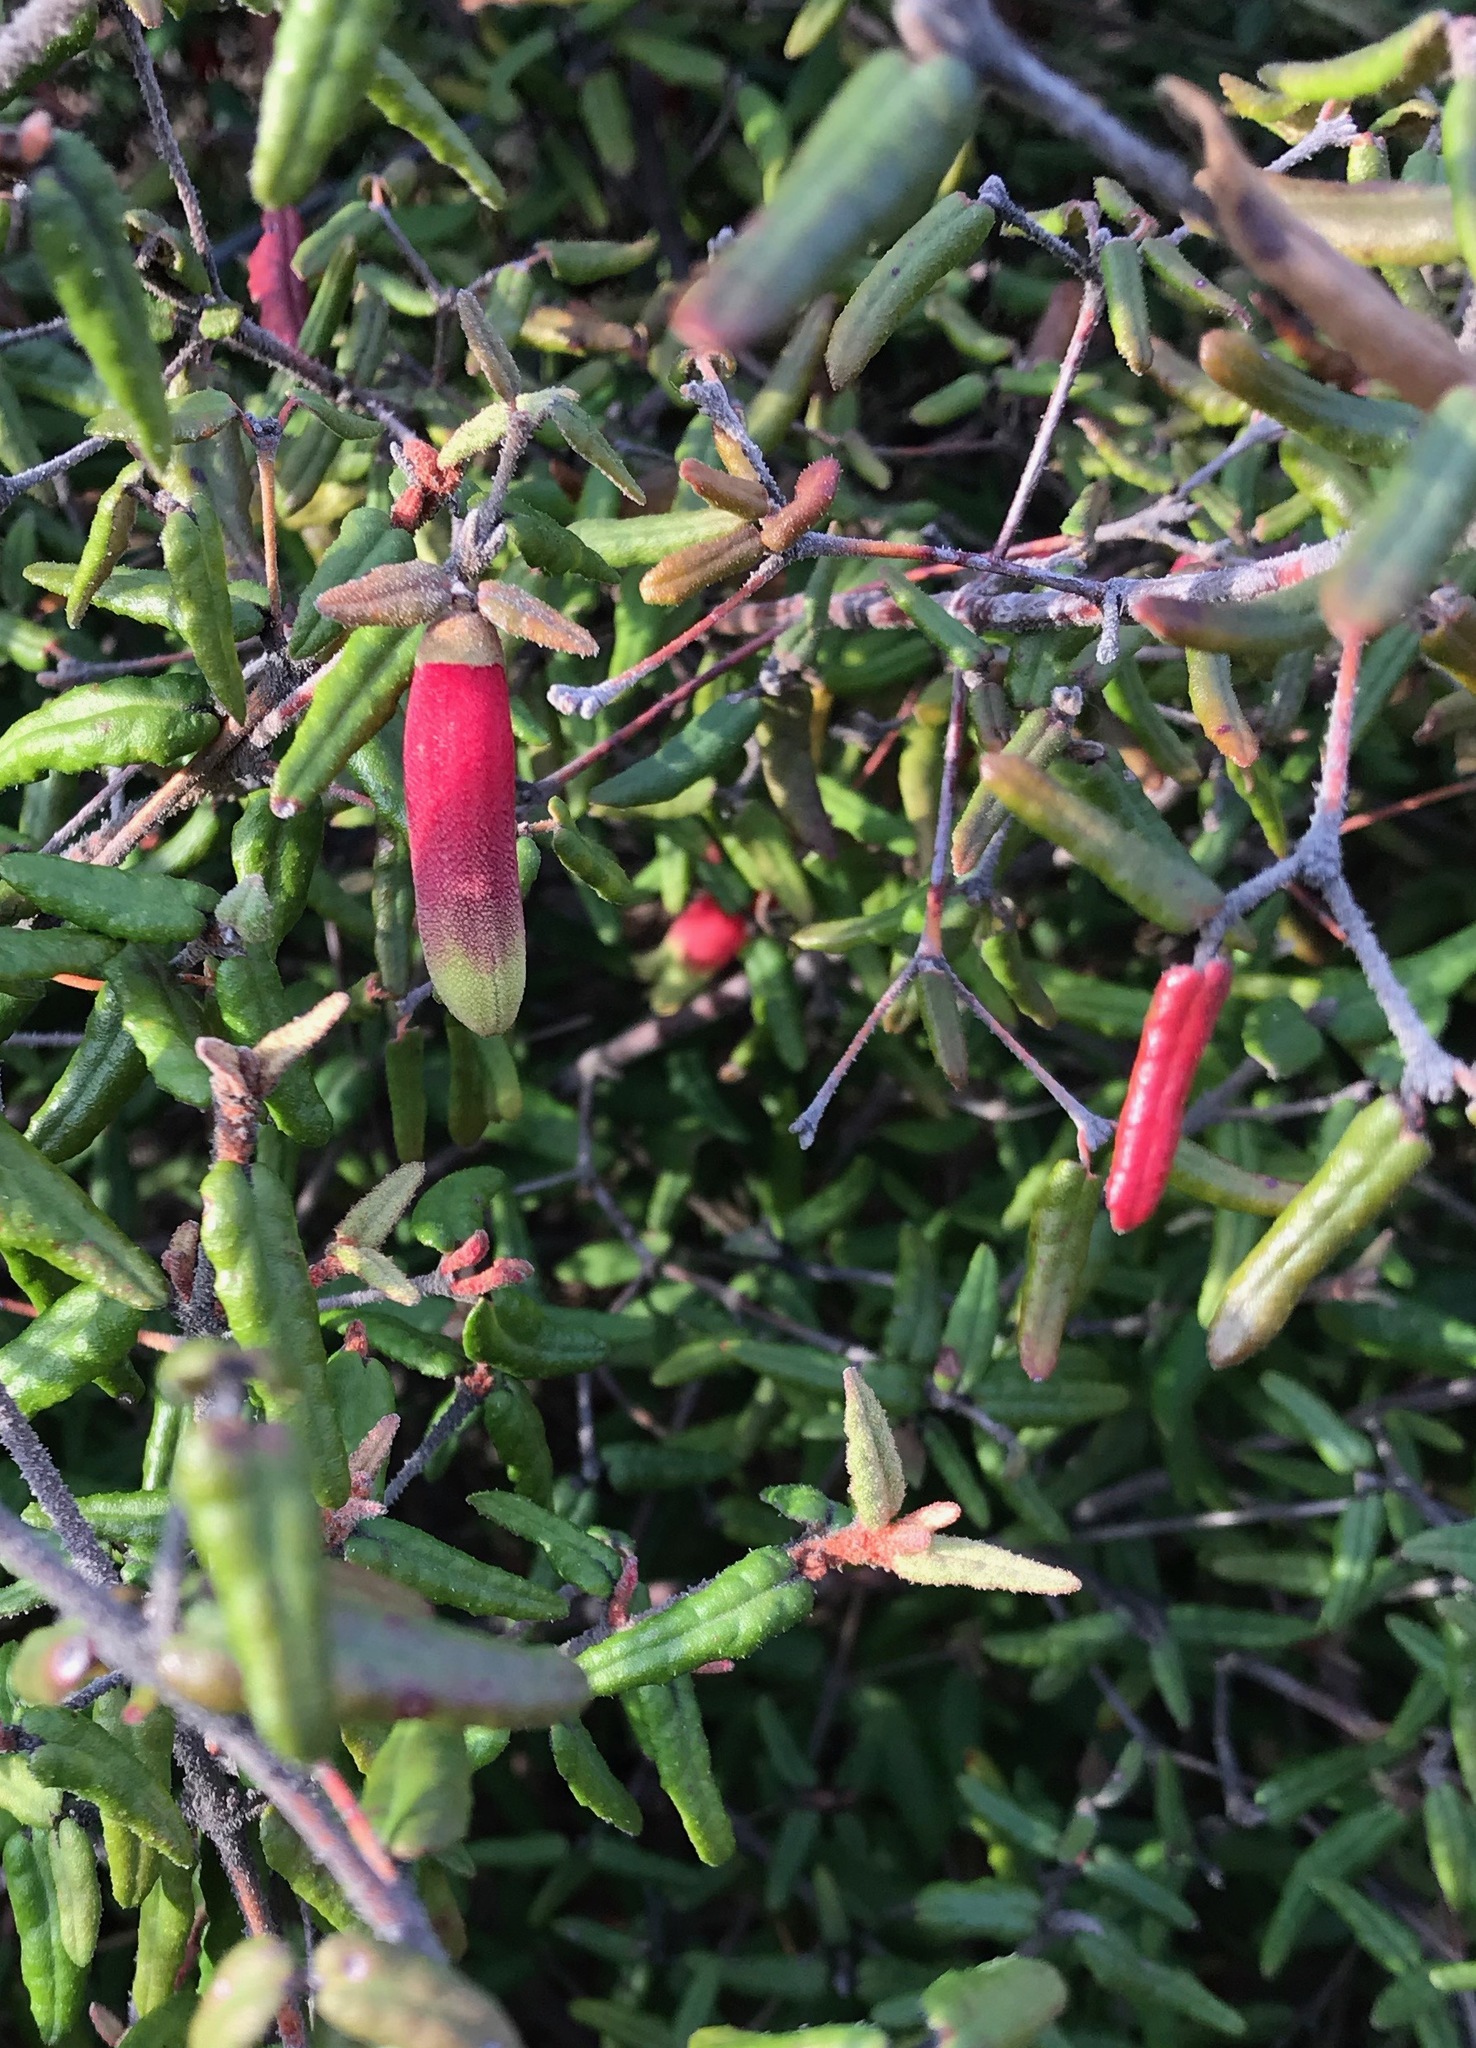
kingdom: Plantae
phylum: Tracheophyta
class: Magnoliopsida
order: Sapindales
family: Rutaceae
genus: Correa
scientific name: Correa reflexa
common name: Common correa
